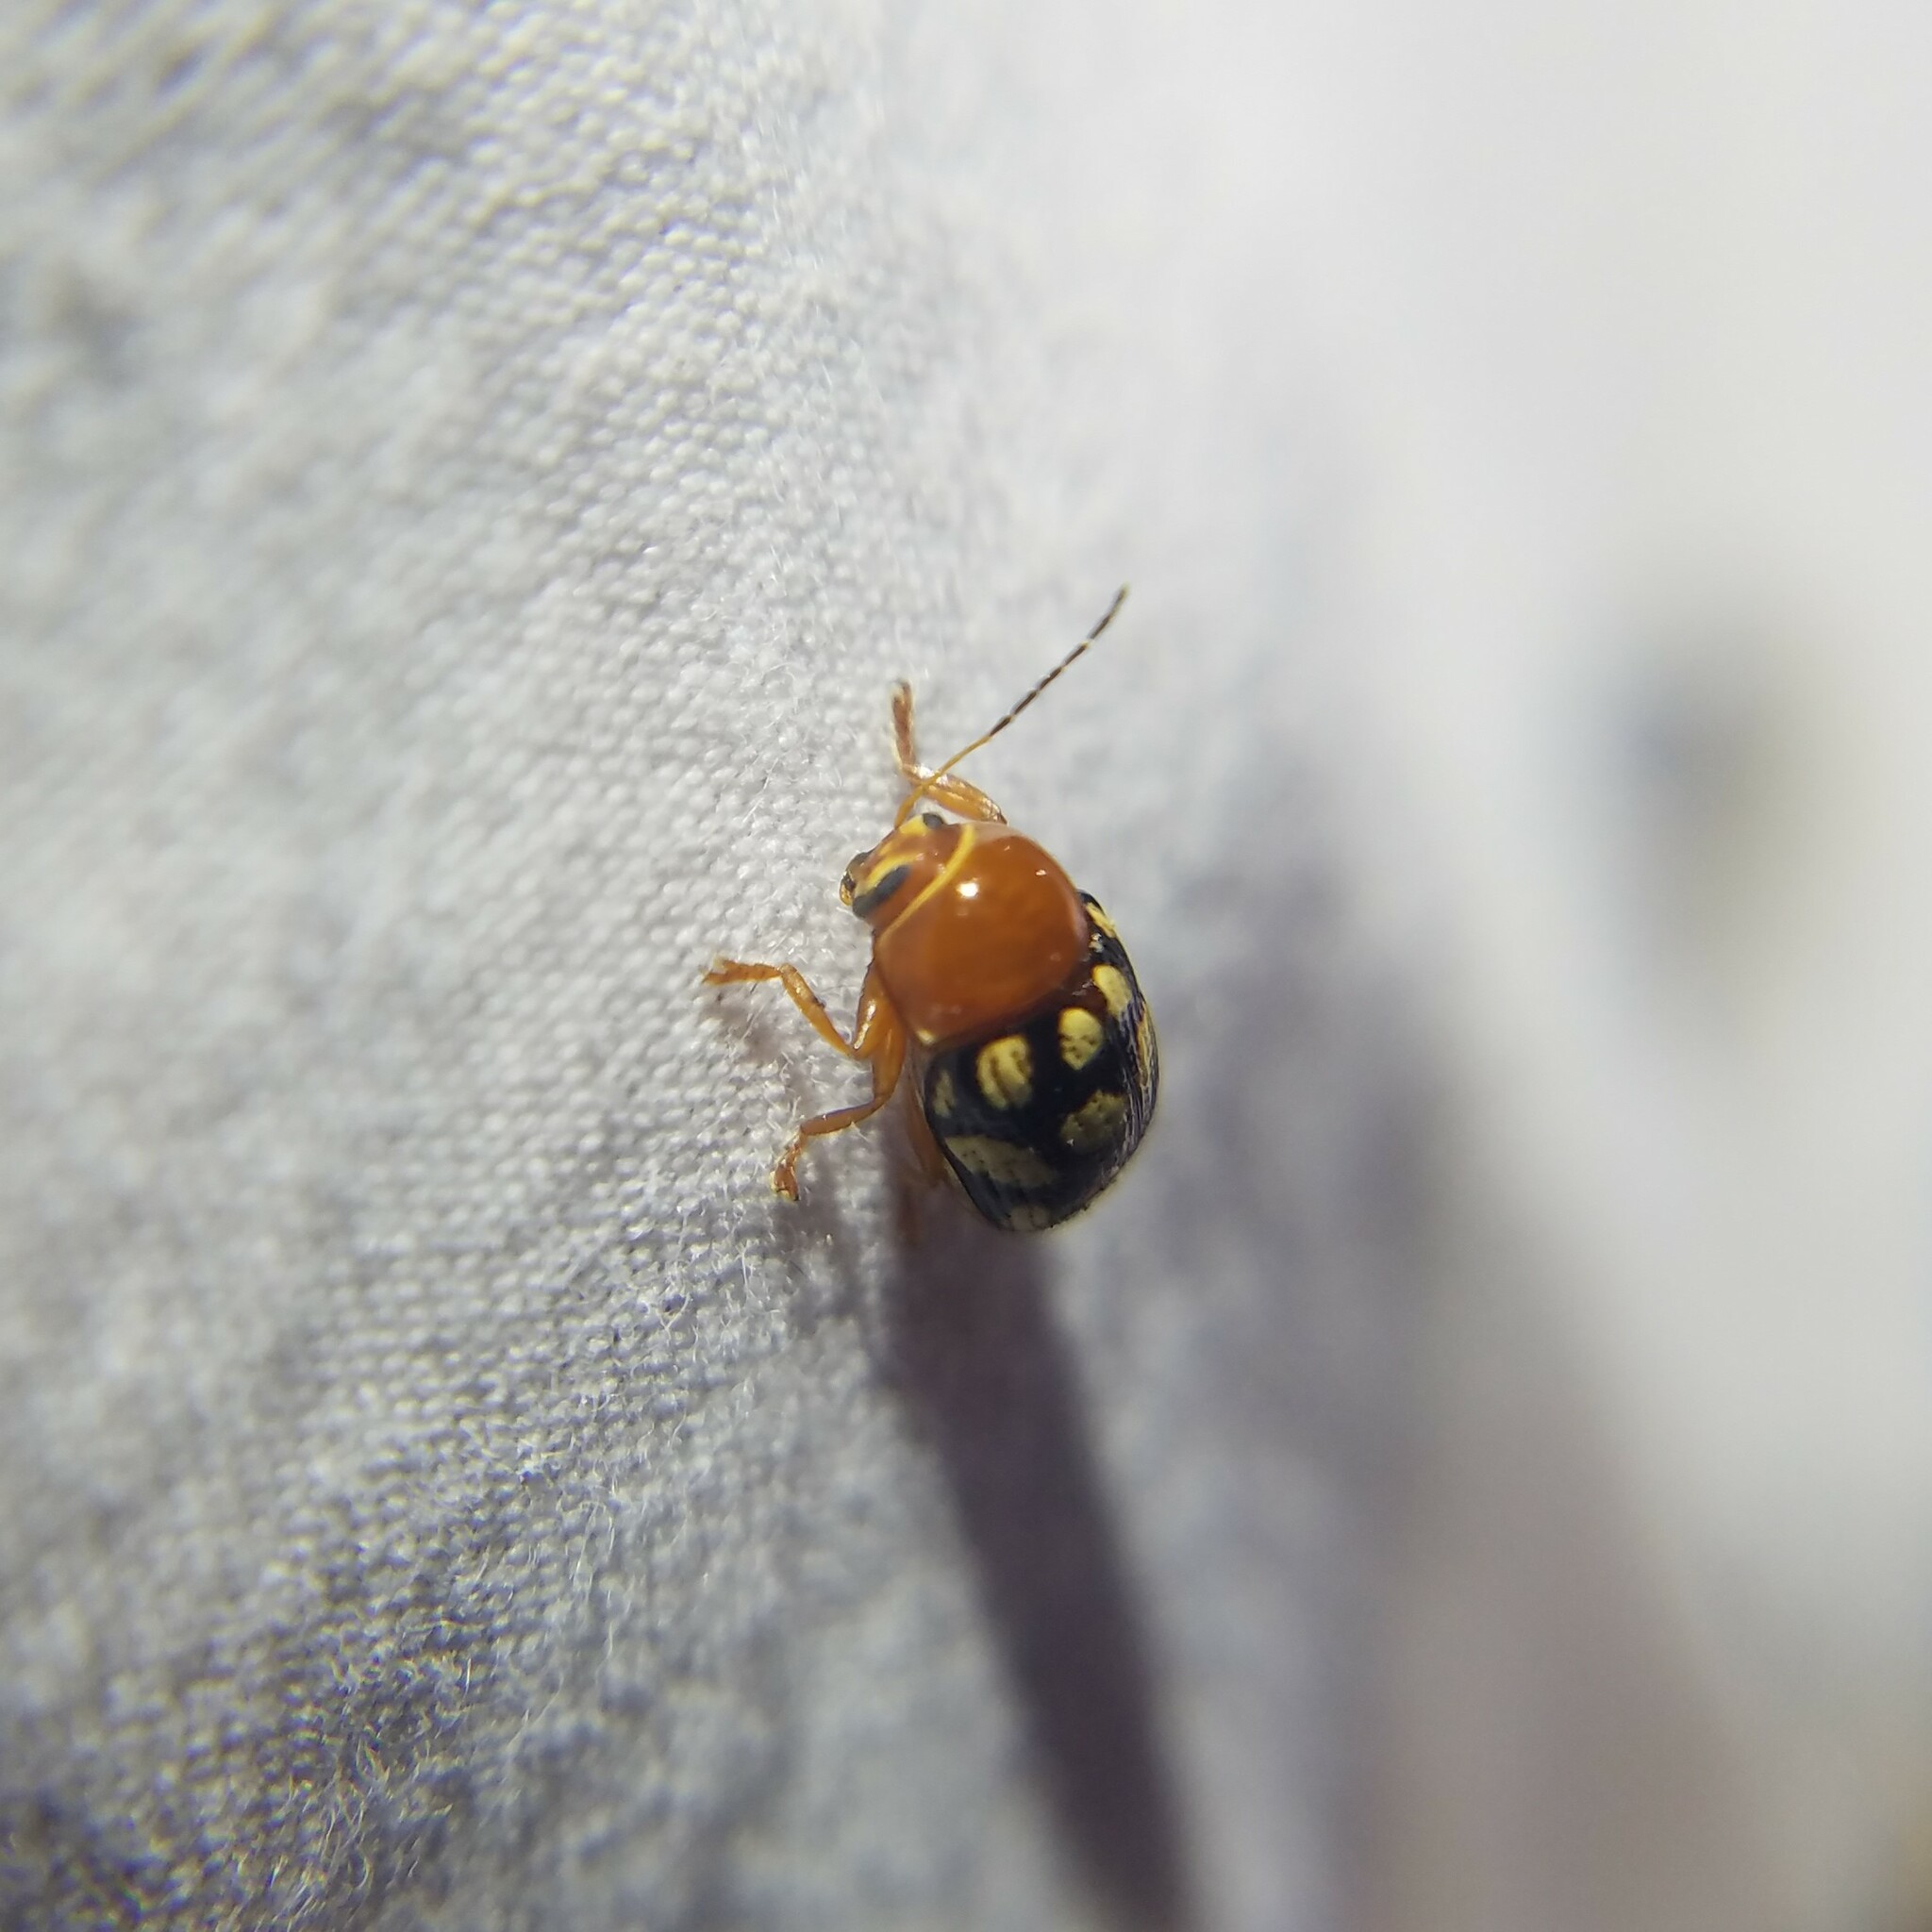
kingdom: Animalia
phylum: Arthropoda
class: Insecta
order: Coleoptera
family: Chrysomelidae
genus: Cryptocephalus
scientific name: Cryptocephalus guttulatus
